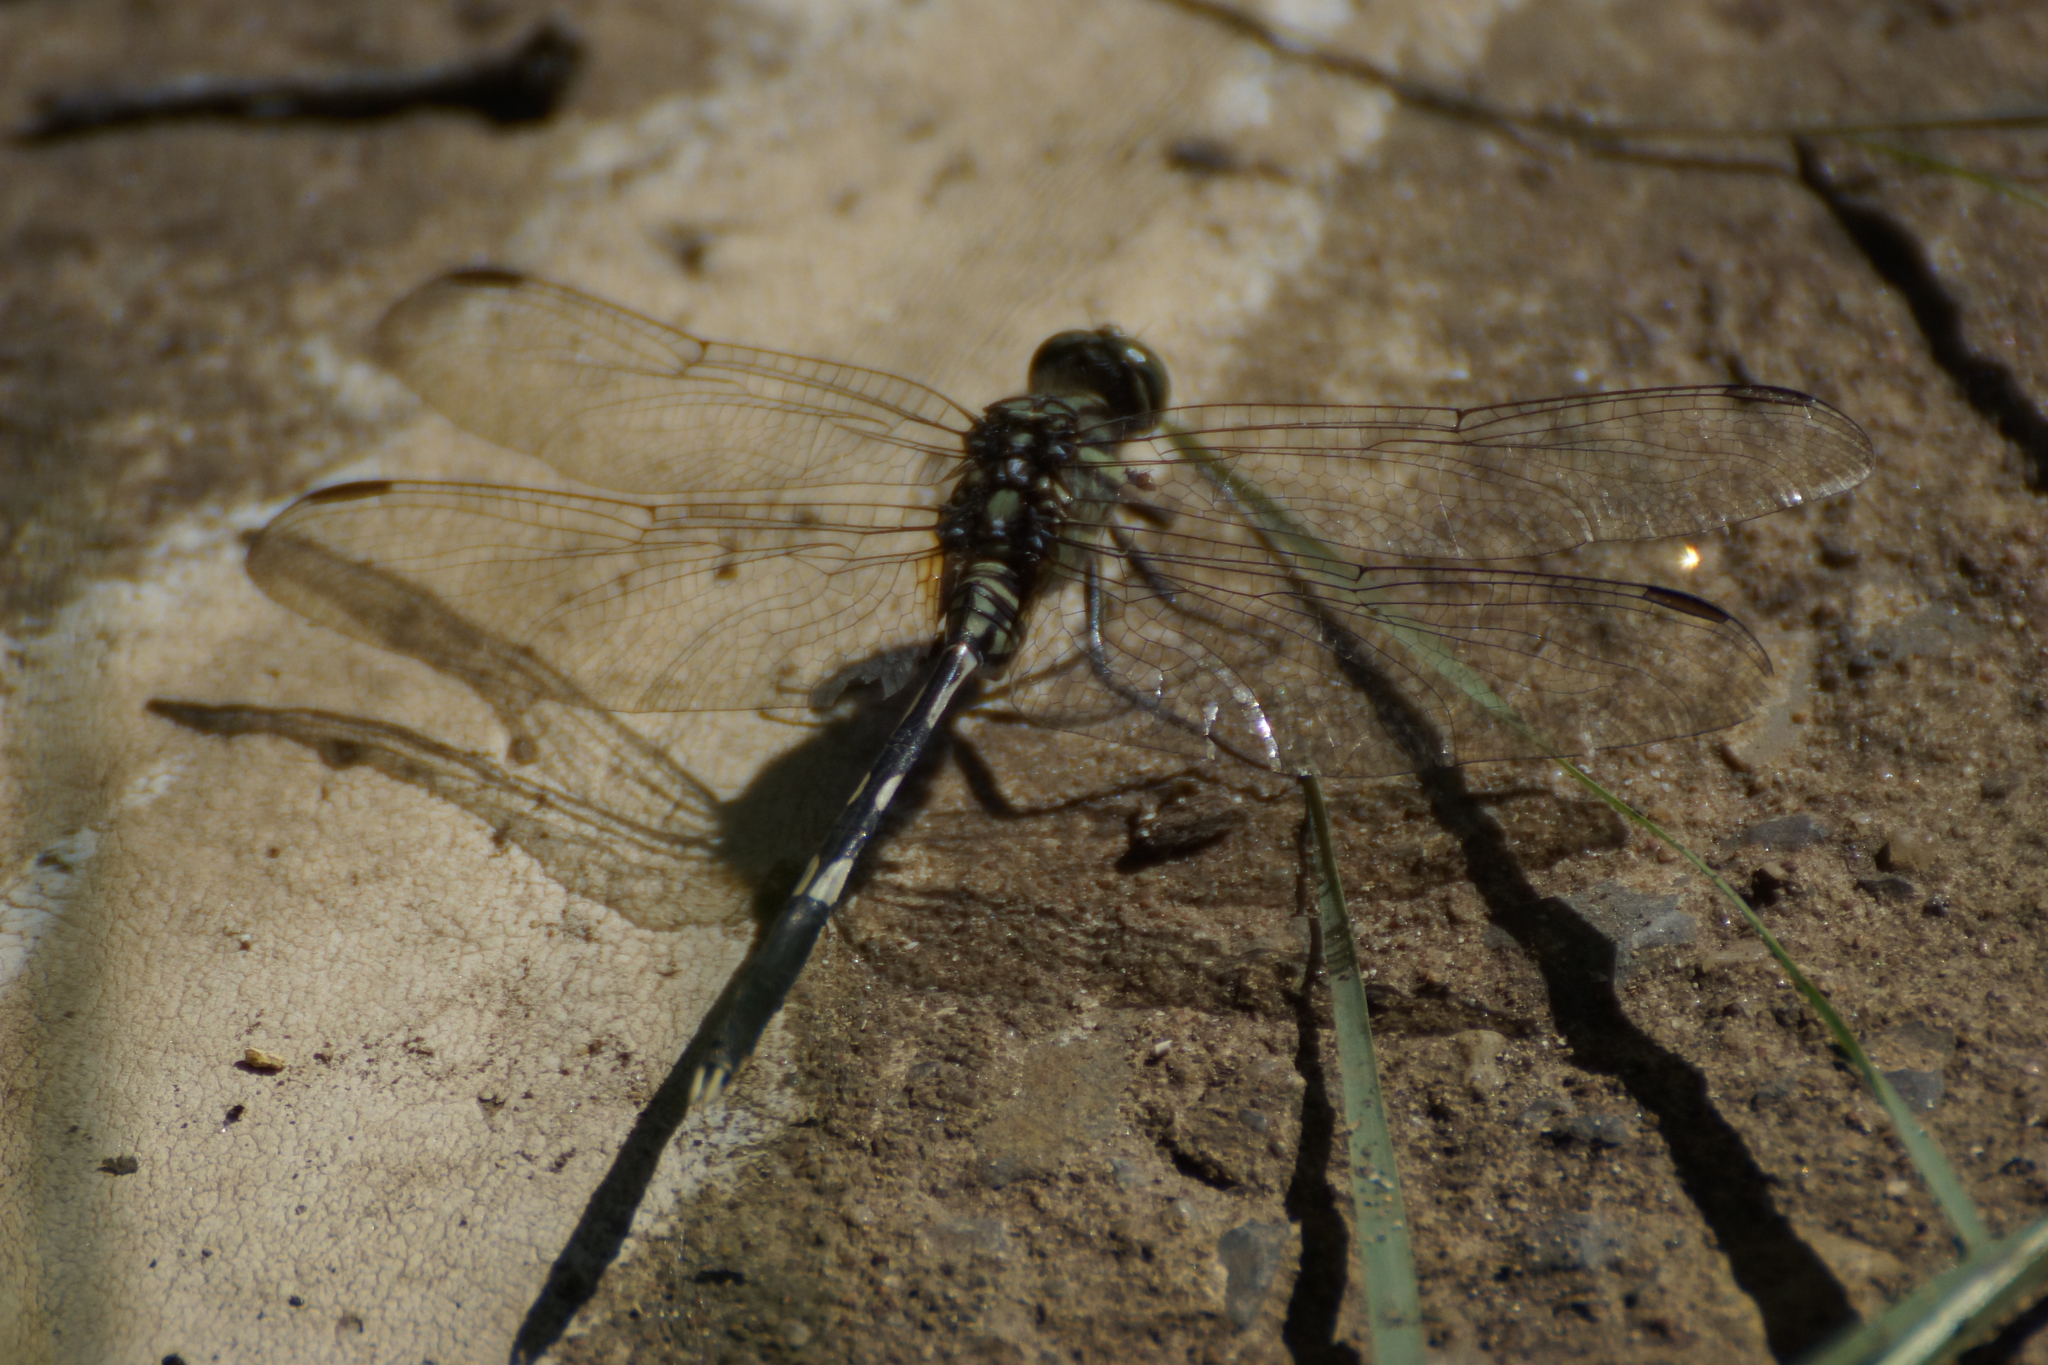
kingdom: Animalia
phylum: Arthropoda
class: Insecta
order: Odonata
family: Libellulidae
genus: Orthetrum
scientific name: Orthetrum sabina
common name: Slender skimmer
